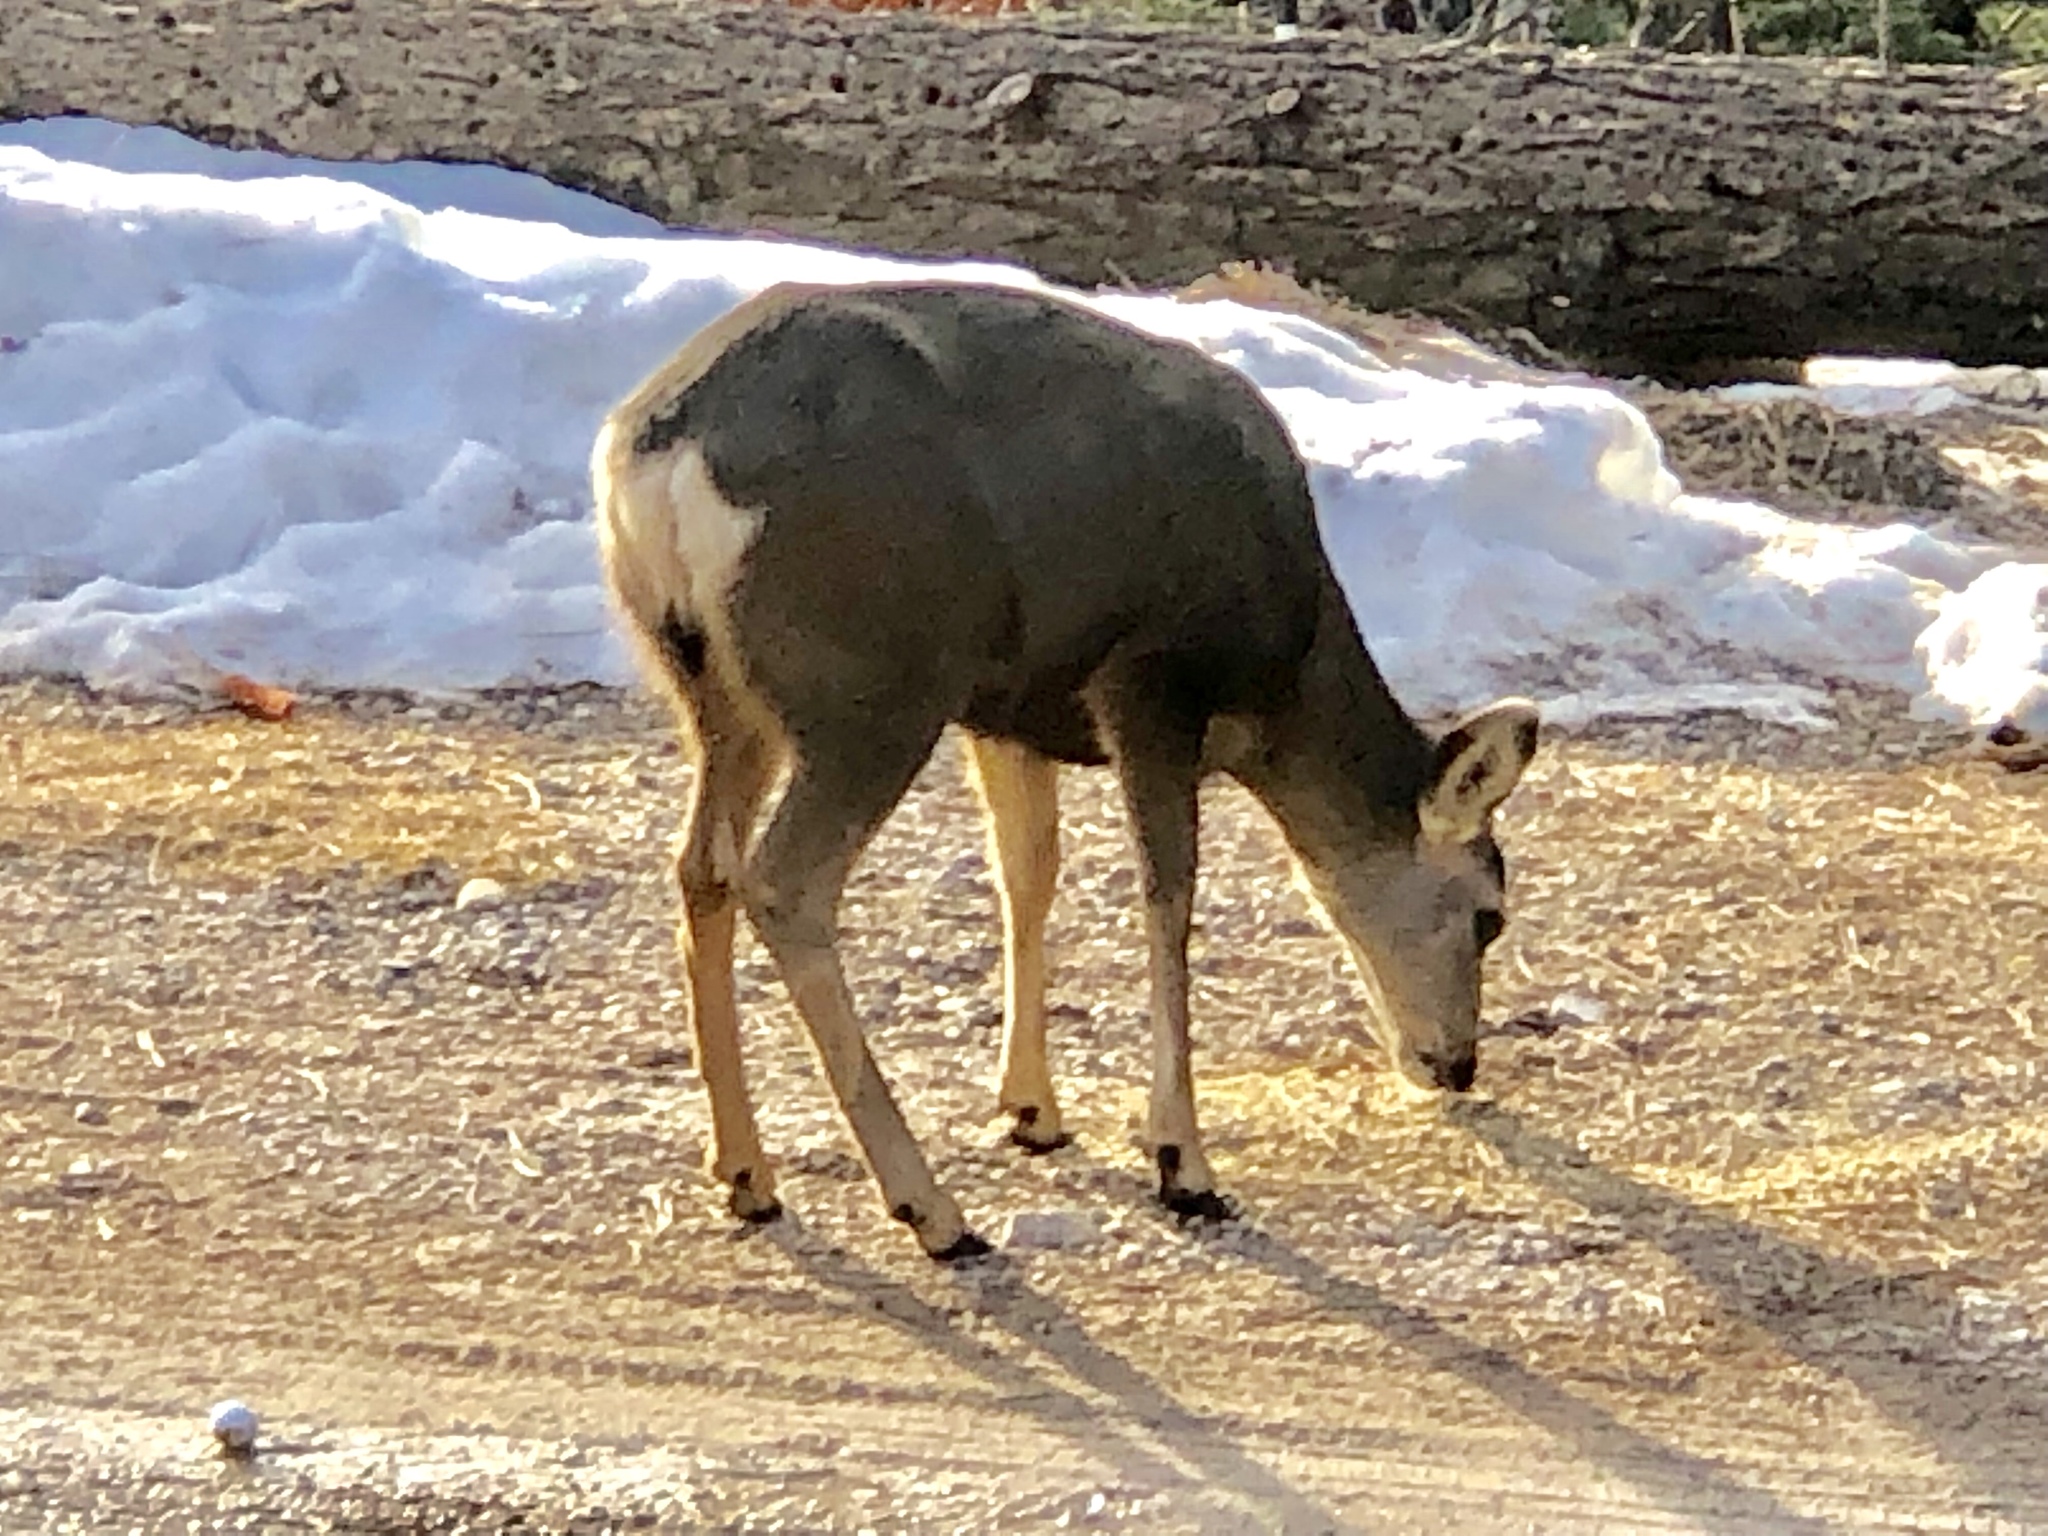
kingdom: Animalia
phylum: Chordata
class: Mammalia
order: Artiodactyla
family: Cervidae
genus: Odocoileus
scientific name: Odocoileus hemionus
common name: Mule deer
